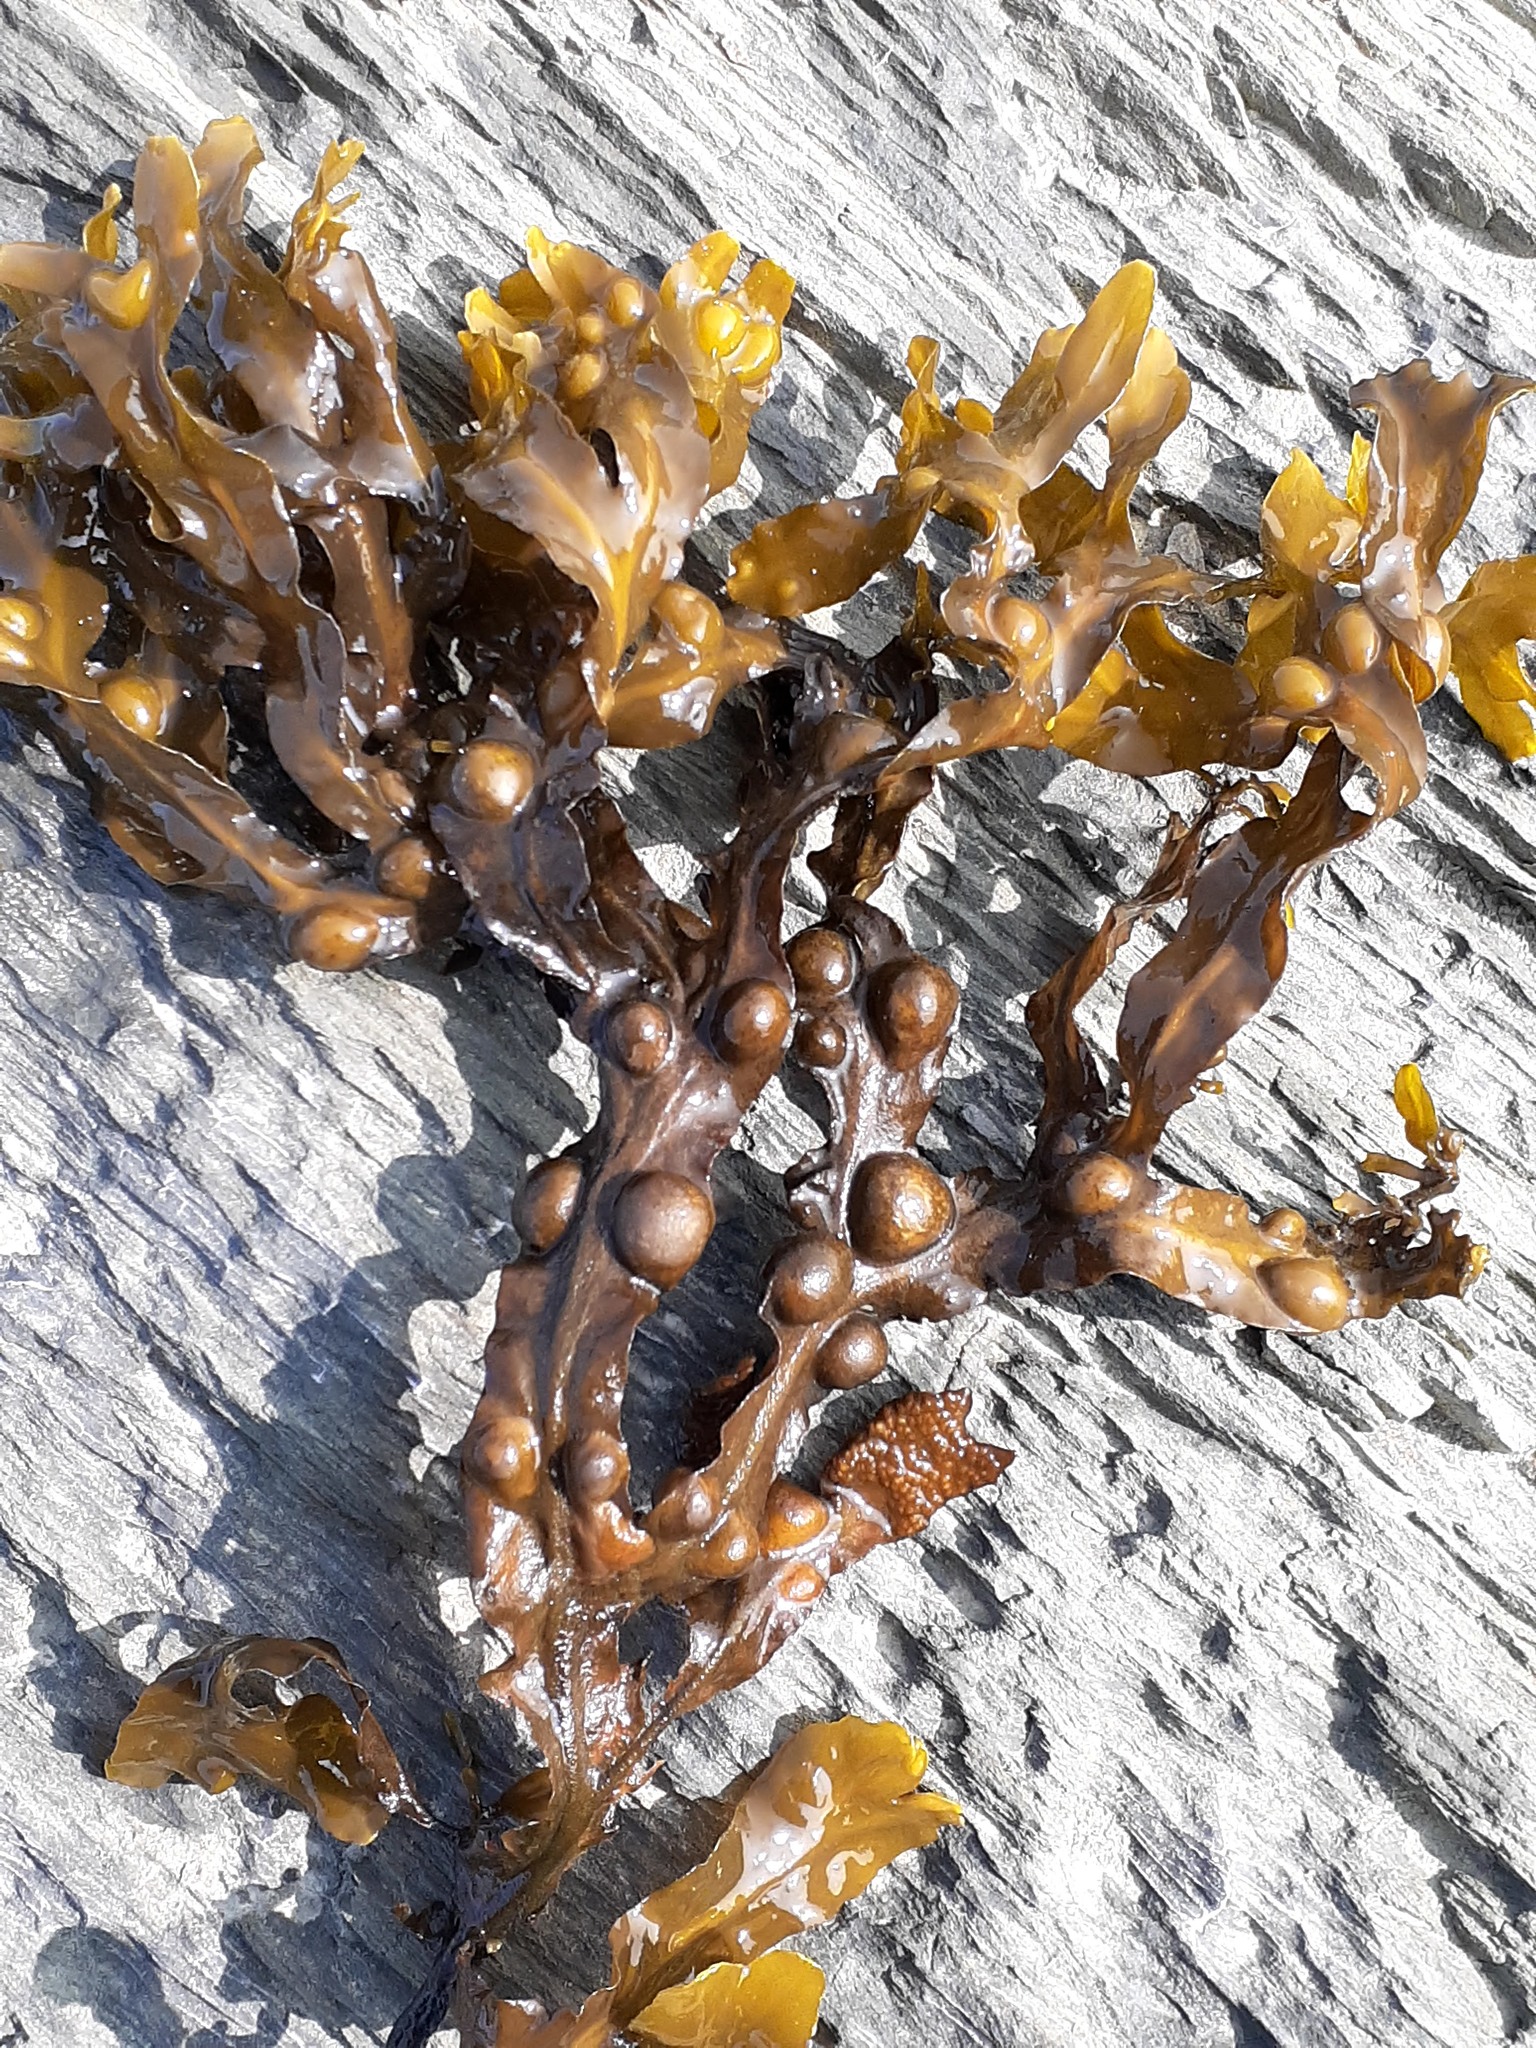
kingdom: Chromista
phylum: Ochrophyta
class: Phaeophyceae
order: Fucales
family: Fucaceae
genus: Fucus
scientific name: Fucus vesiculosus
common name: Bladder wrack
